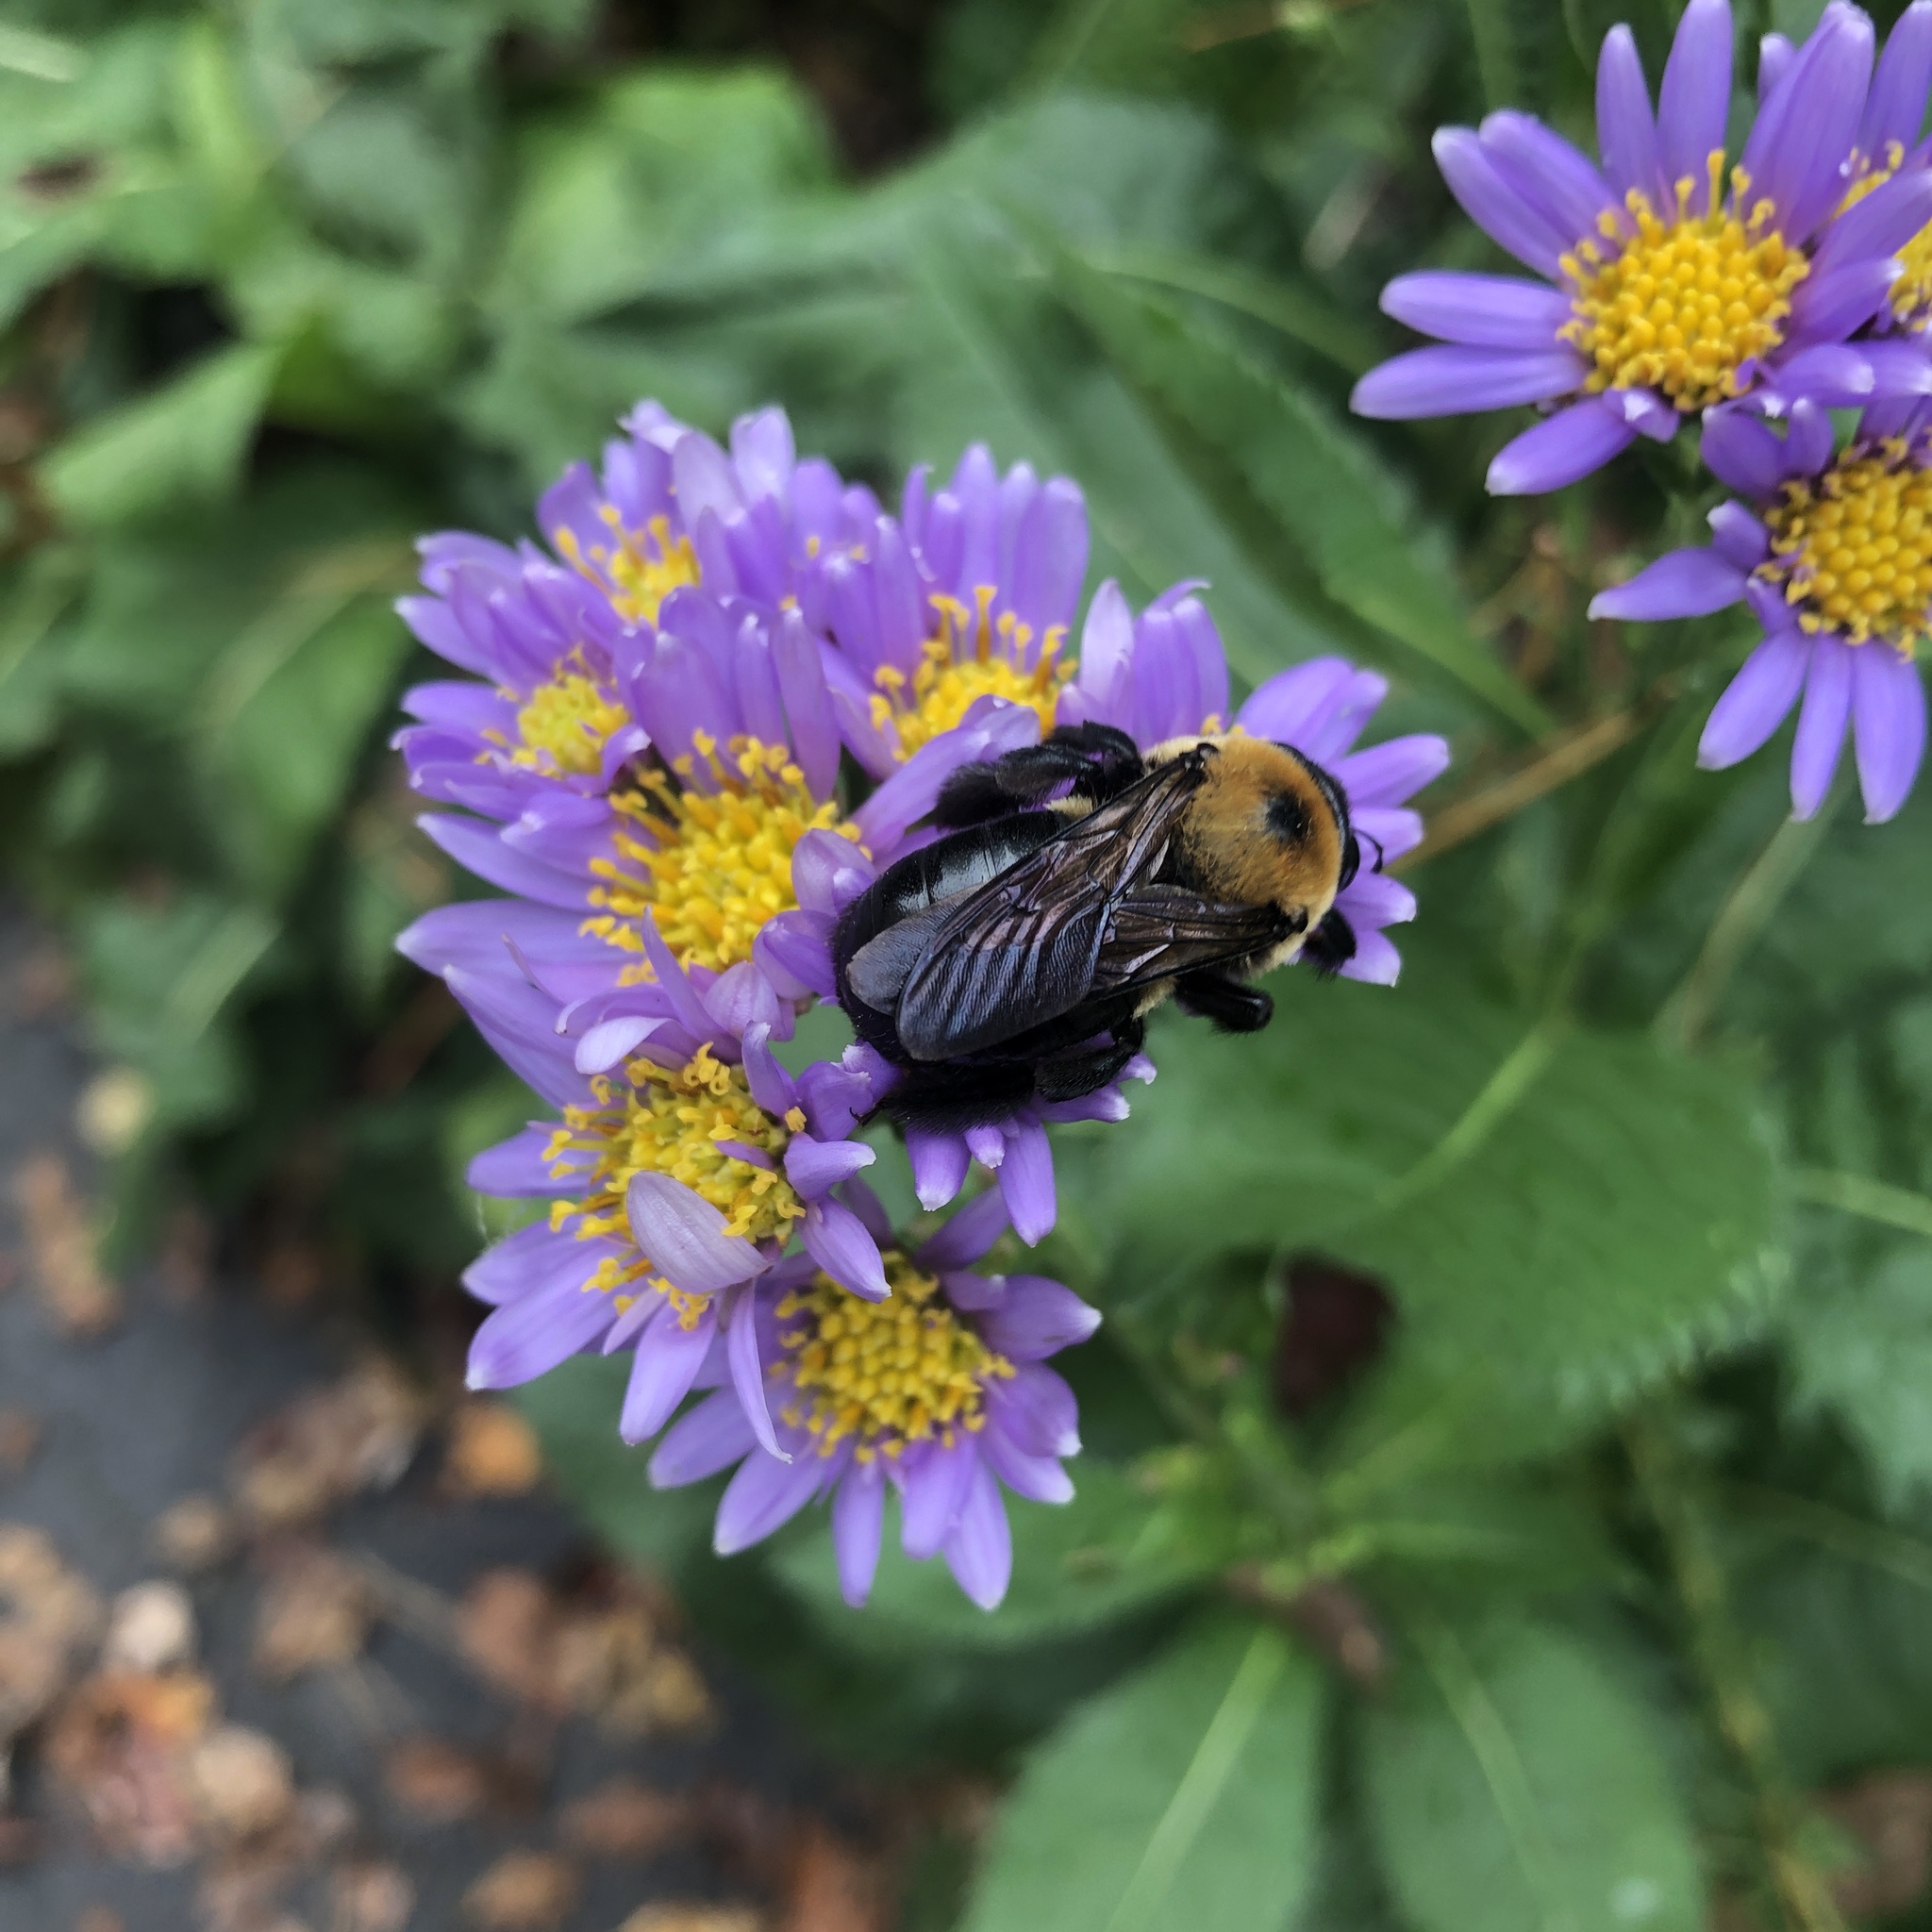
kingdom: Animalia
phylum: Arthropoda
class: Insecta
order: Hymenoptera
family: Apidae
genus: Xylocopa
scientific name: Xylocopa virginica
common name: Carpenter bee
